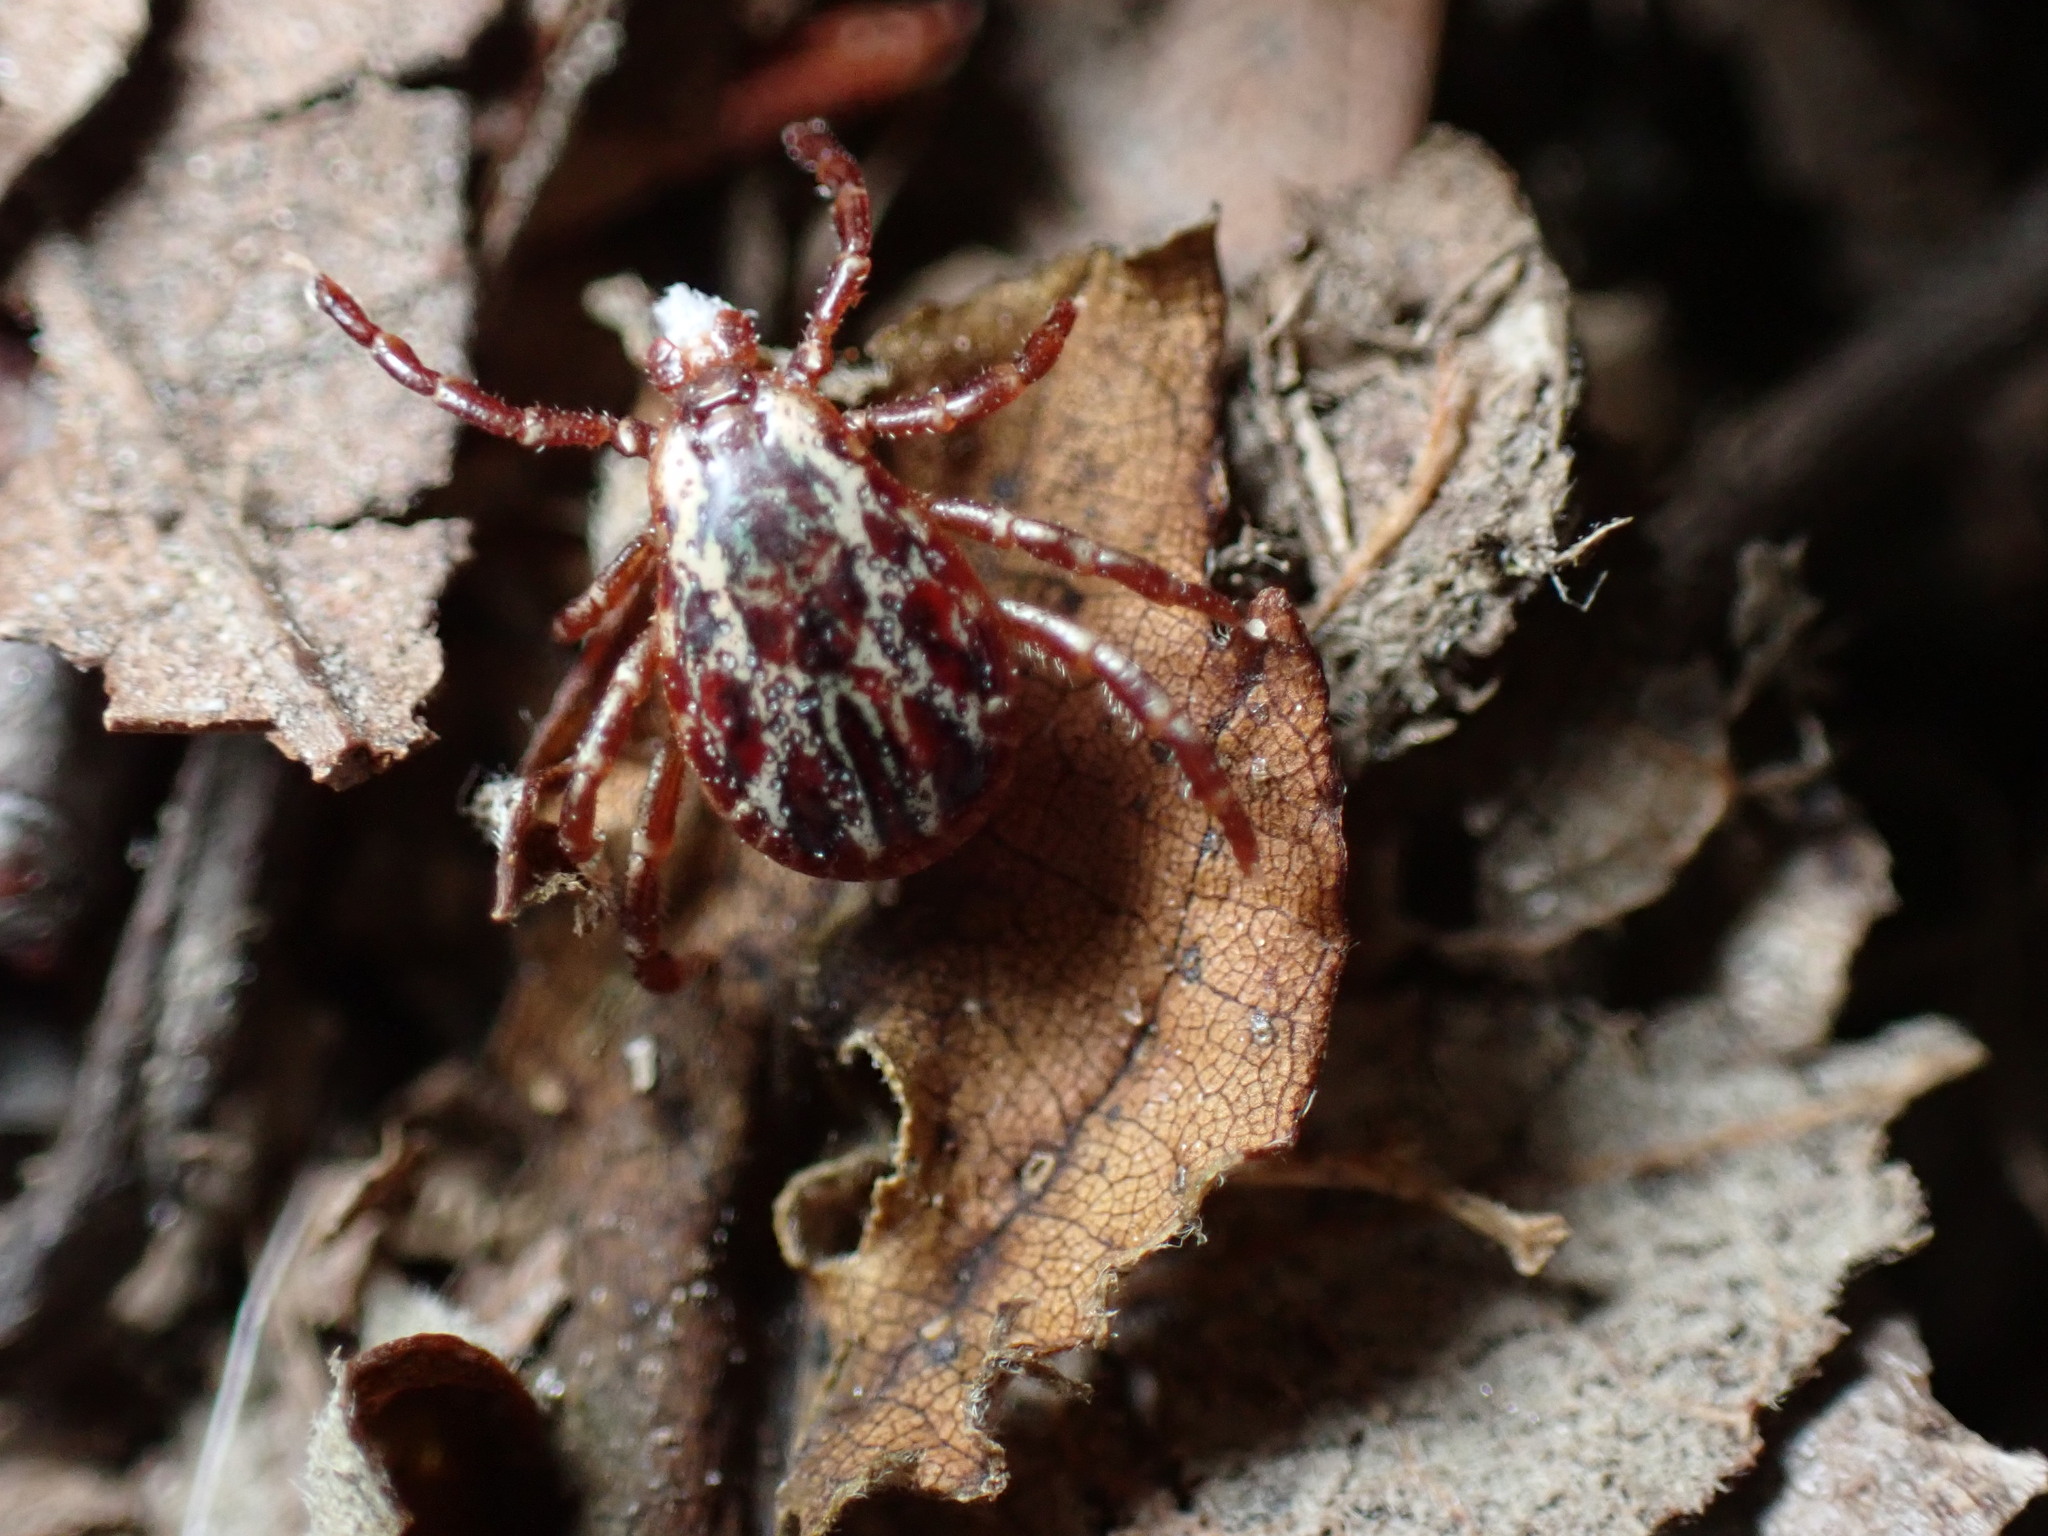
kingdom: Animalia
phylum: Arthropoda
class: Arachnida
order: Ixodida
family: Ixodidae
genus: Dermacentor
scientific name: Dermacentor variabilis
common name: American dog tick
